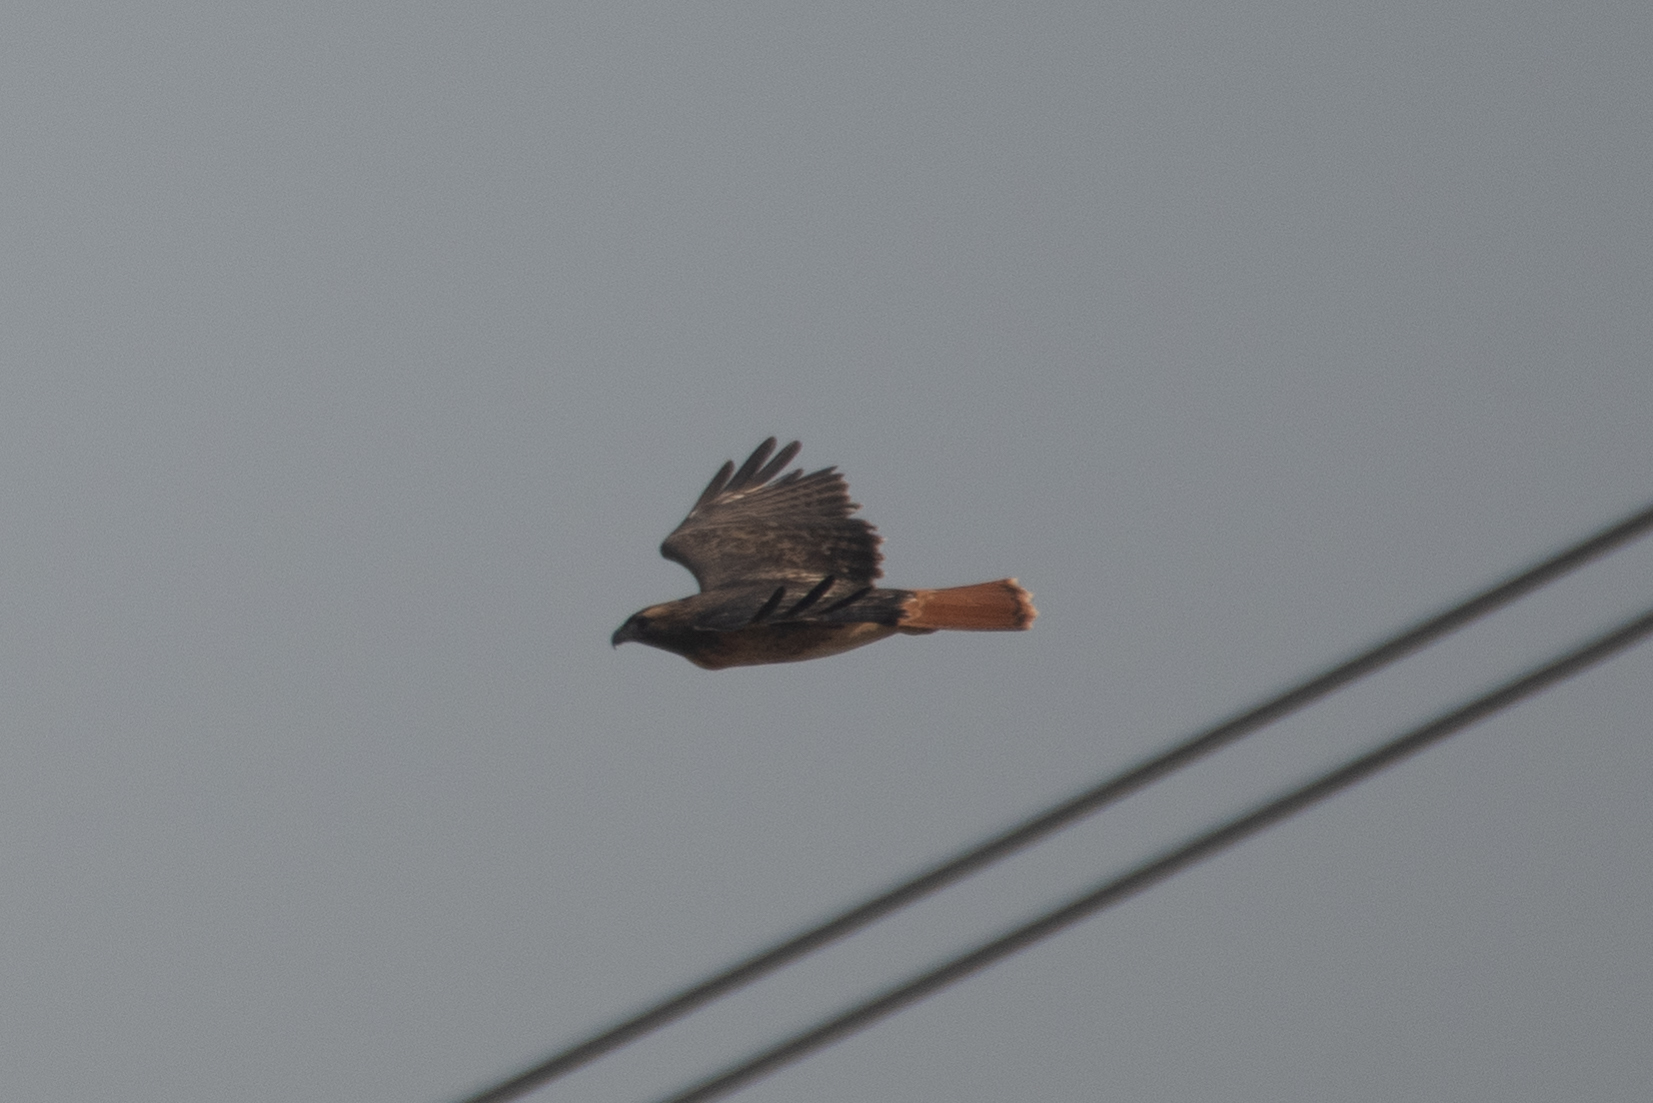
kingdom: Animalia
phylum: Chordata
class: Aves
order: Accipitriformes
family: Accipitridae
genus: Buteo
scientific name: Buteo jamaicensis
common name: Red-tailed hawk
